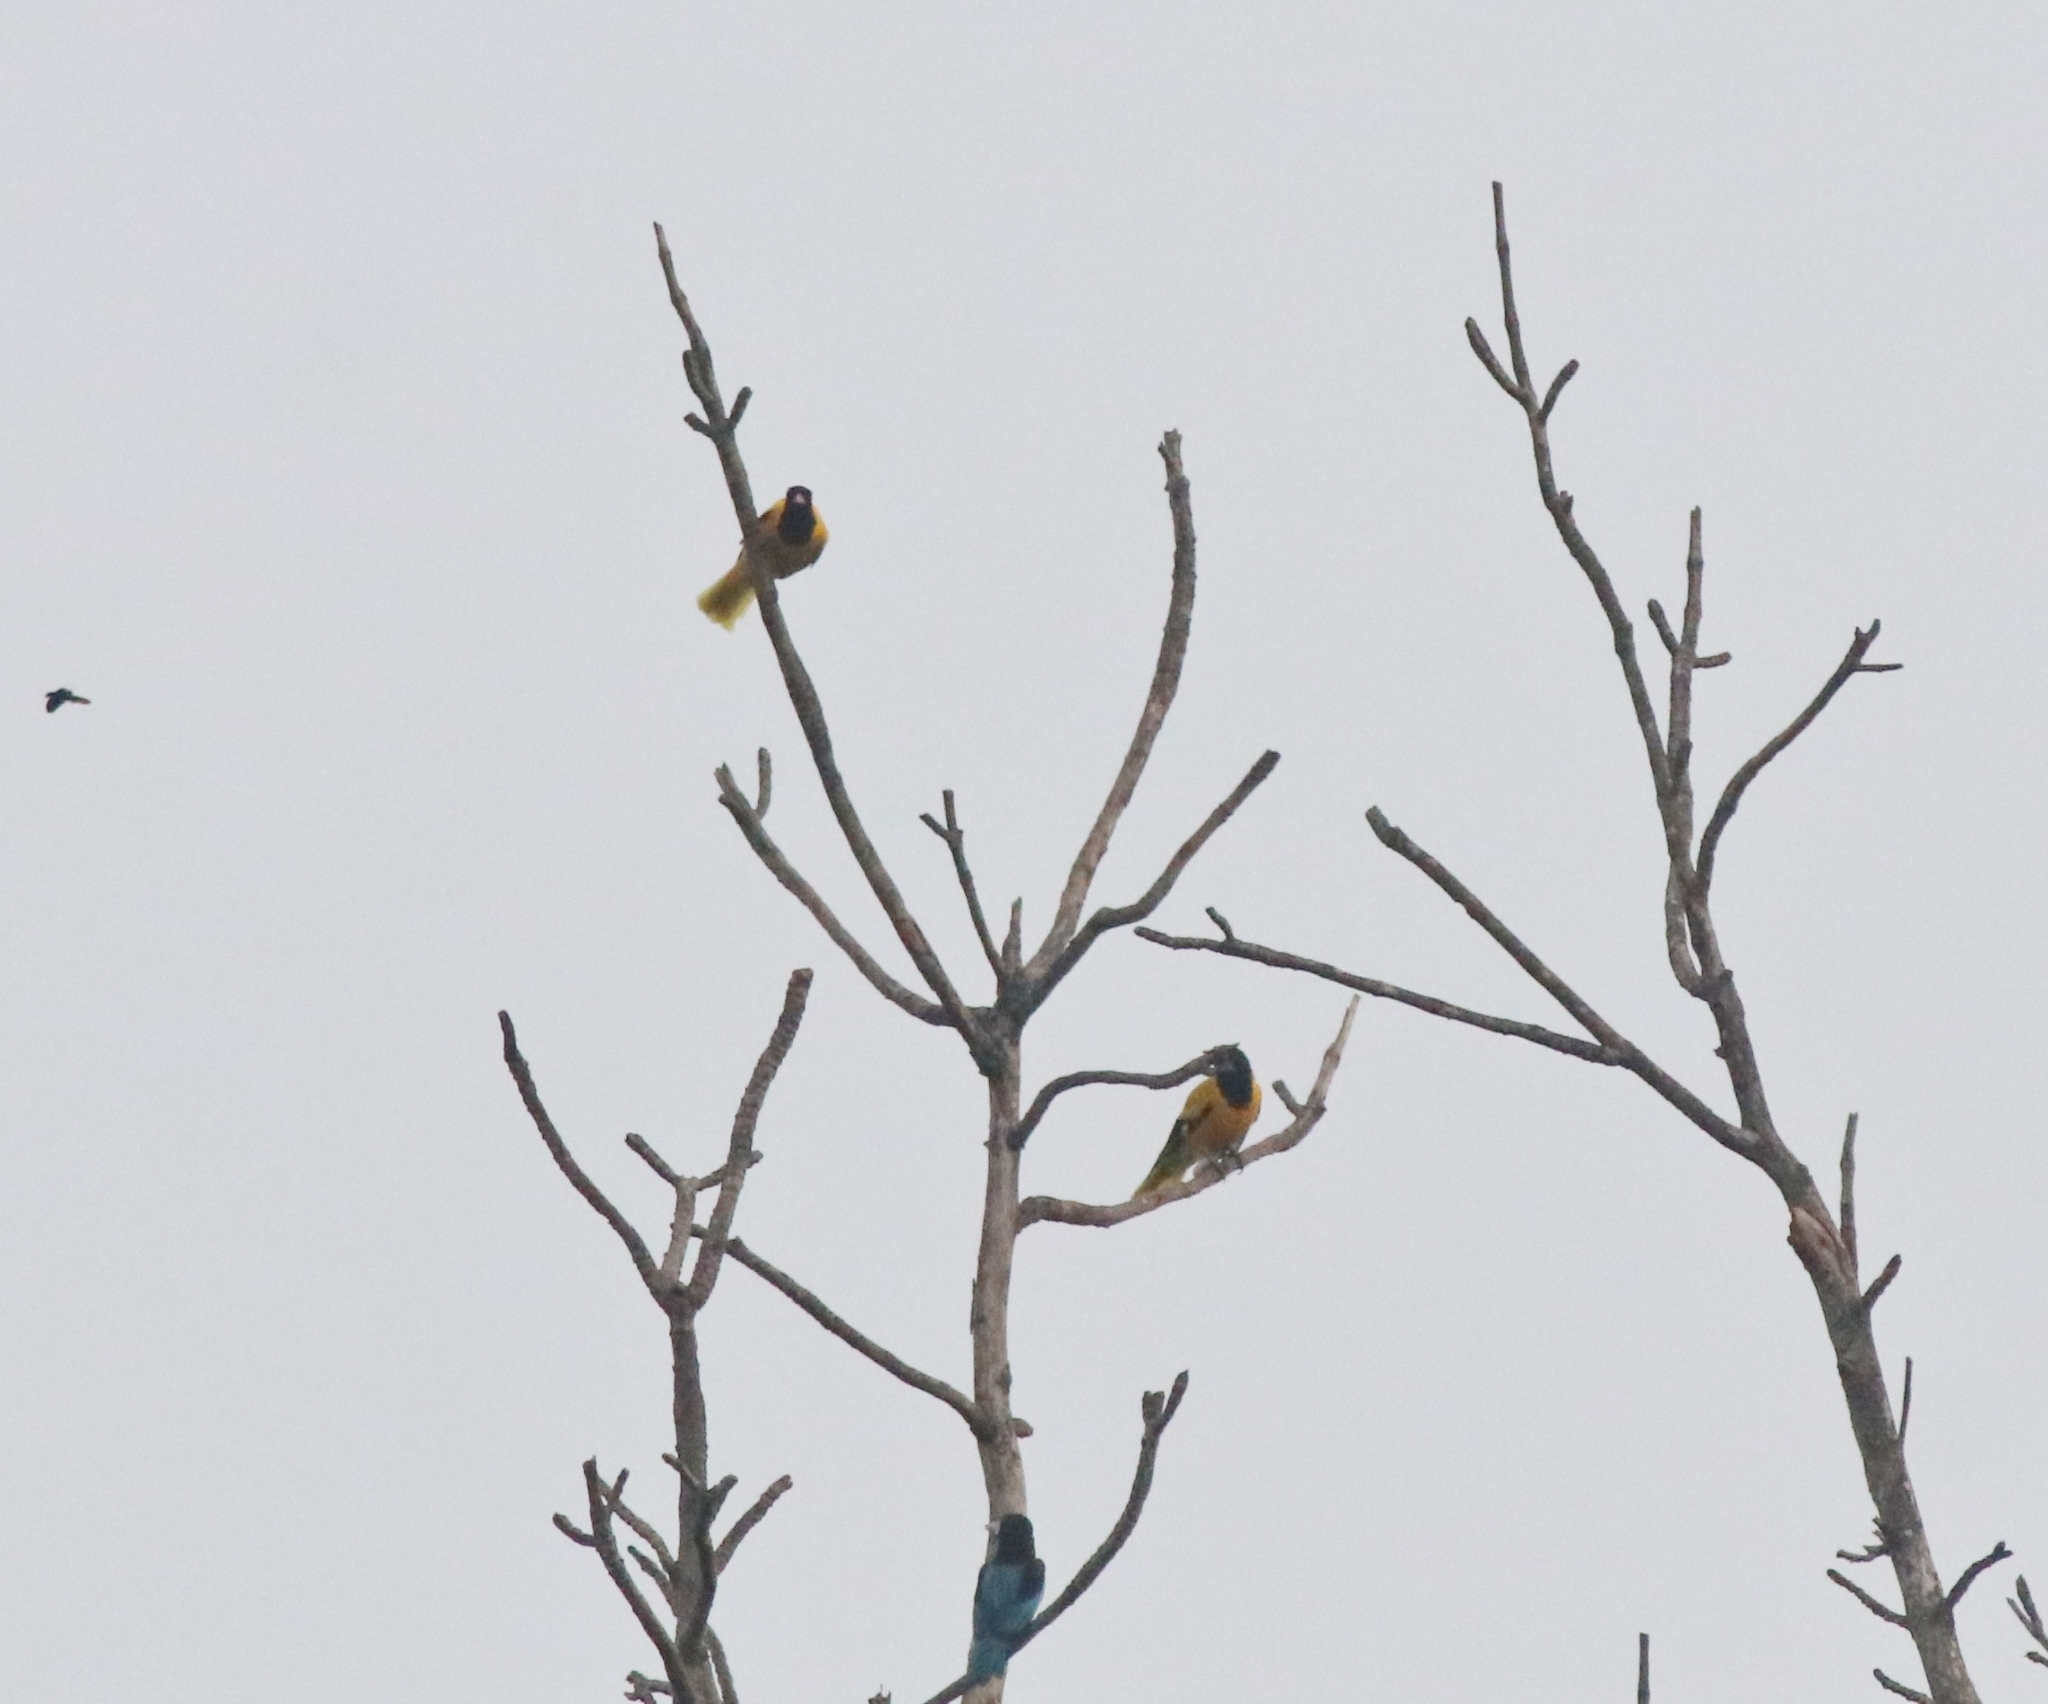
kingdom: Animalia
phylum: Chordata
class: Aves
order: Coraciiformes
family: Alcedinidae
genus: Halcyon
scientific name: Halcyon smyrnensis
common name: White-throated kingfisher
